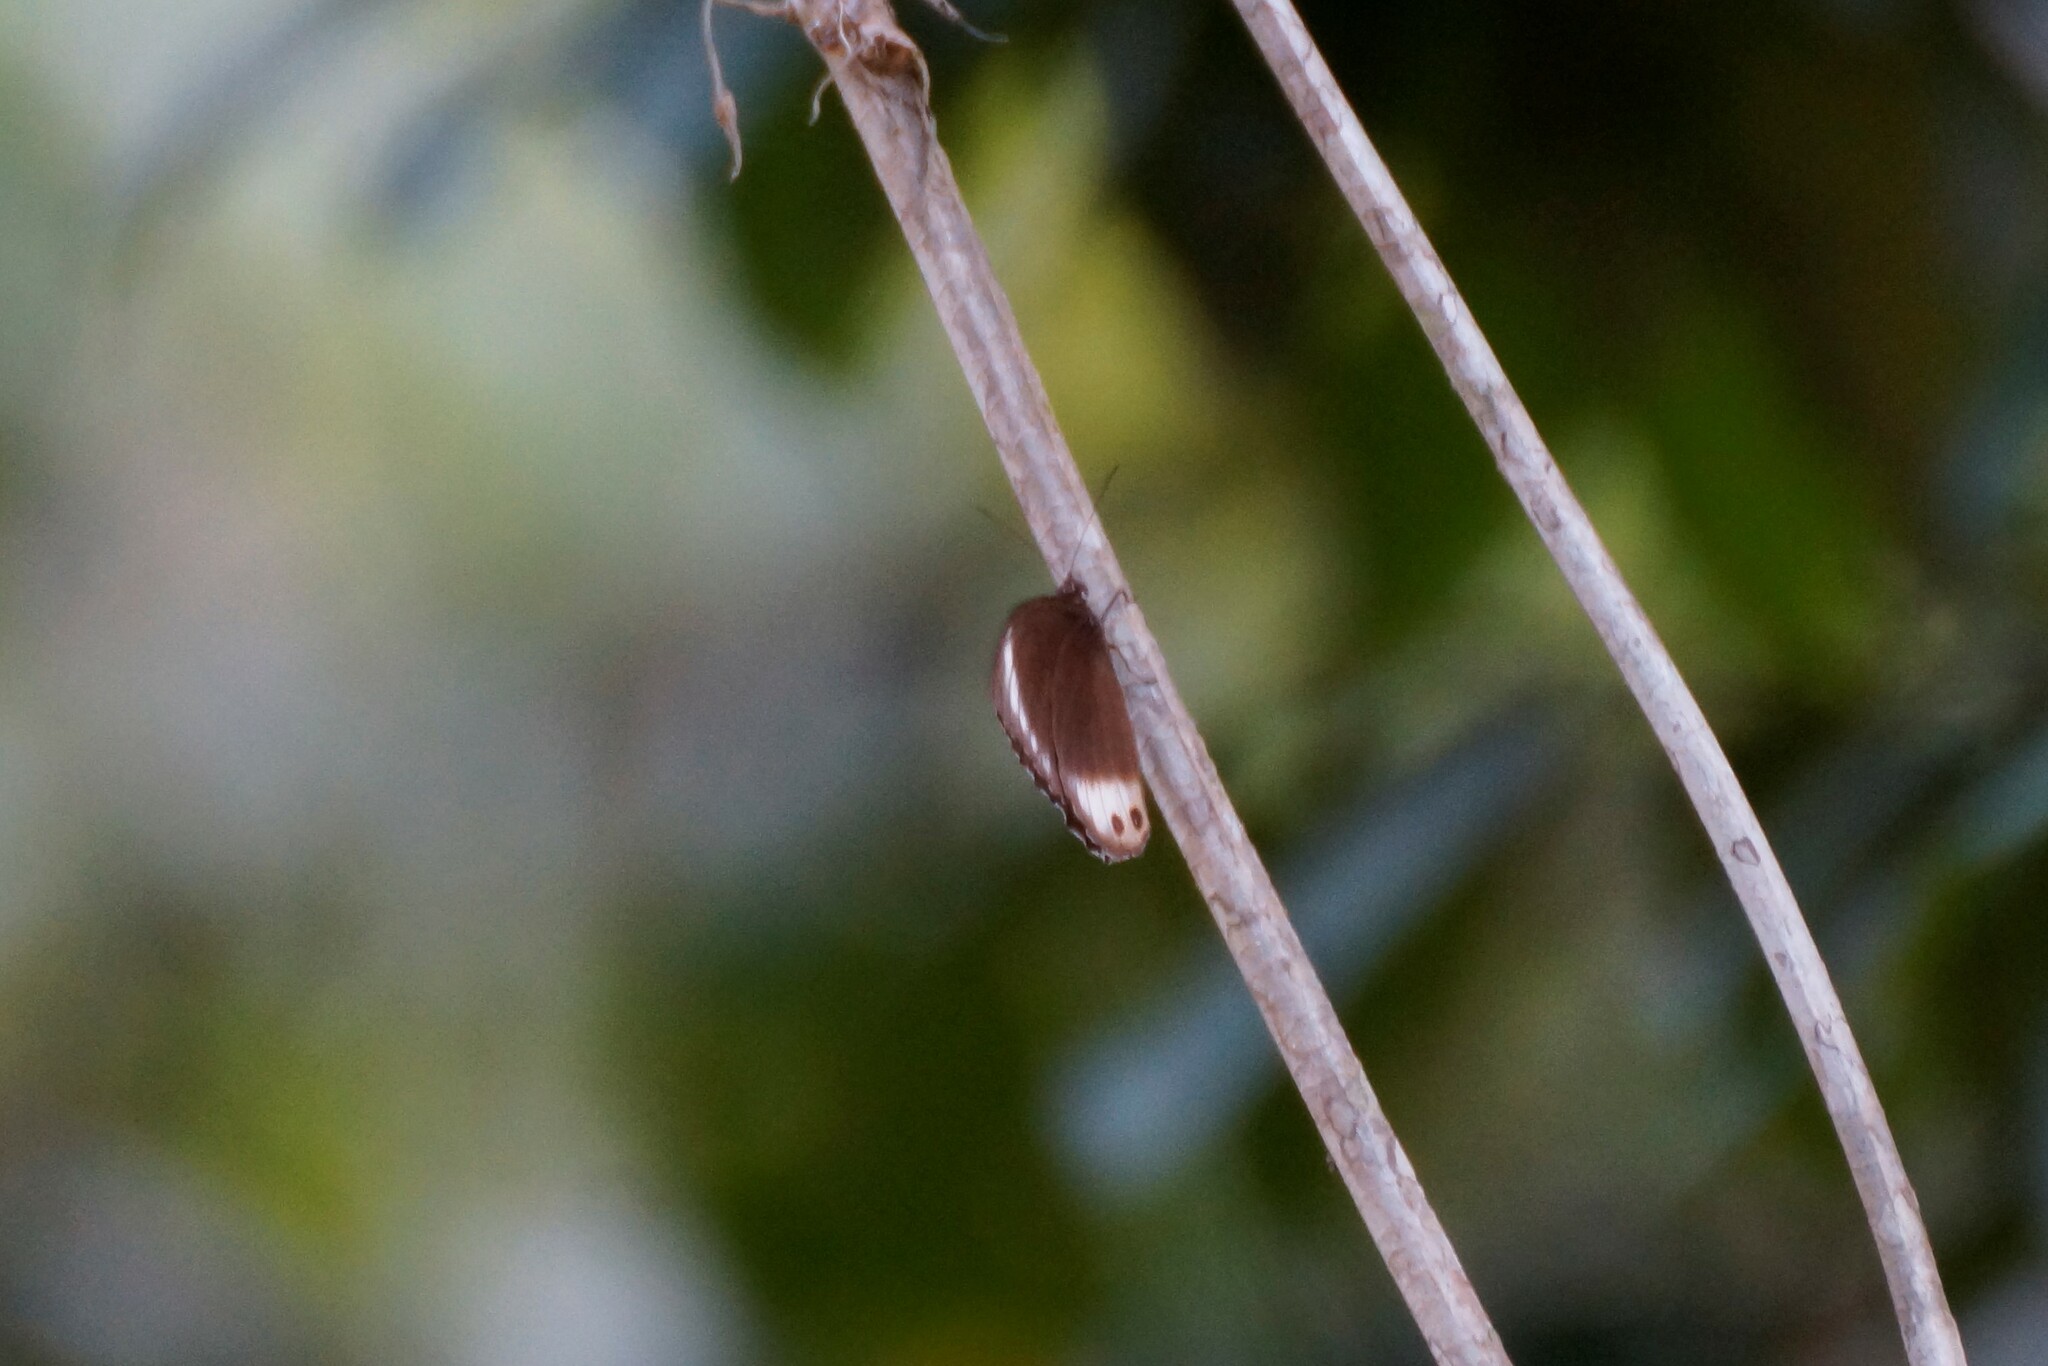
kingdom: Animalia
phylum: Arthropoda
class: Insecta
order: Lepidoptera
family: Nymphalidae
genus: Elymnias
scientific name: Elymnias agondas
